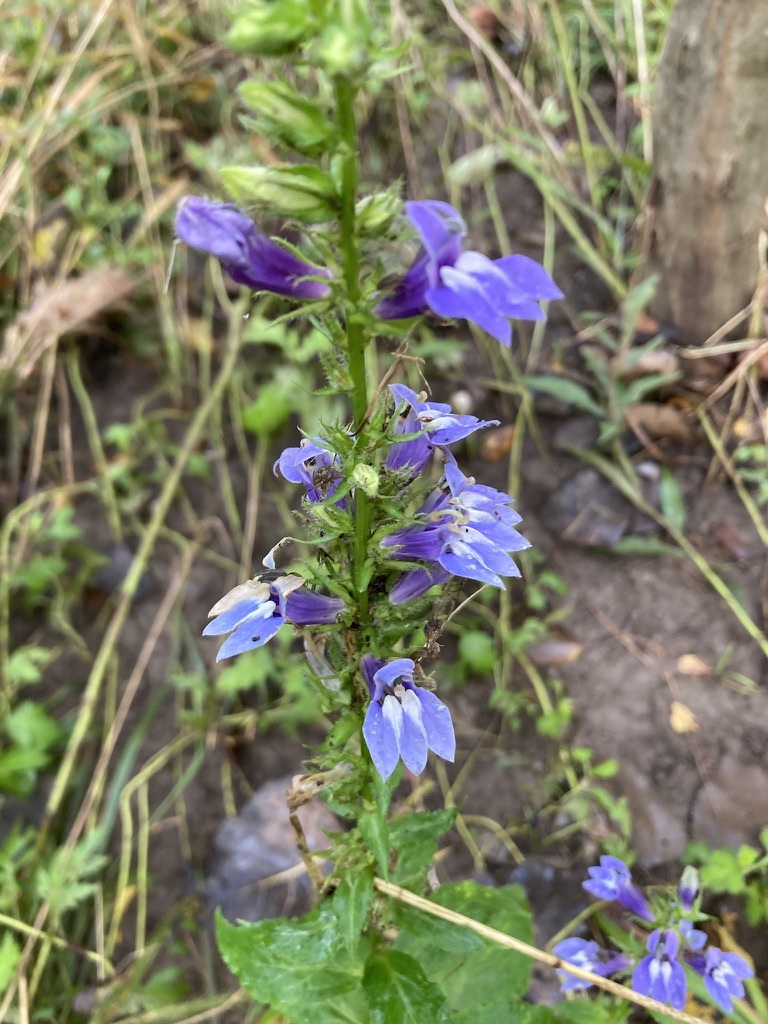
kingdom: Plantae
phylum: Tracheophyta
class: Magnoliopsida
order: Asterales
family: Campanulaceae
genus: Lobelia
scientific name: Lobelia siphilitica
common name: Great lobelia
